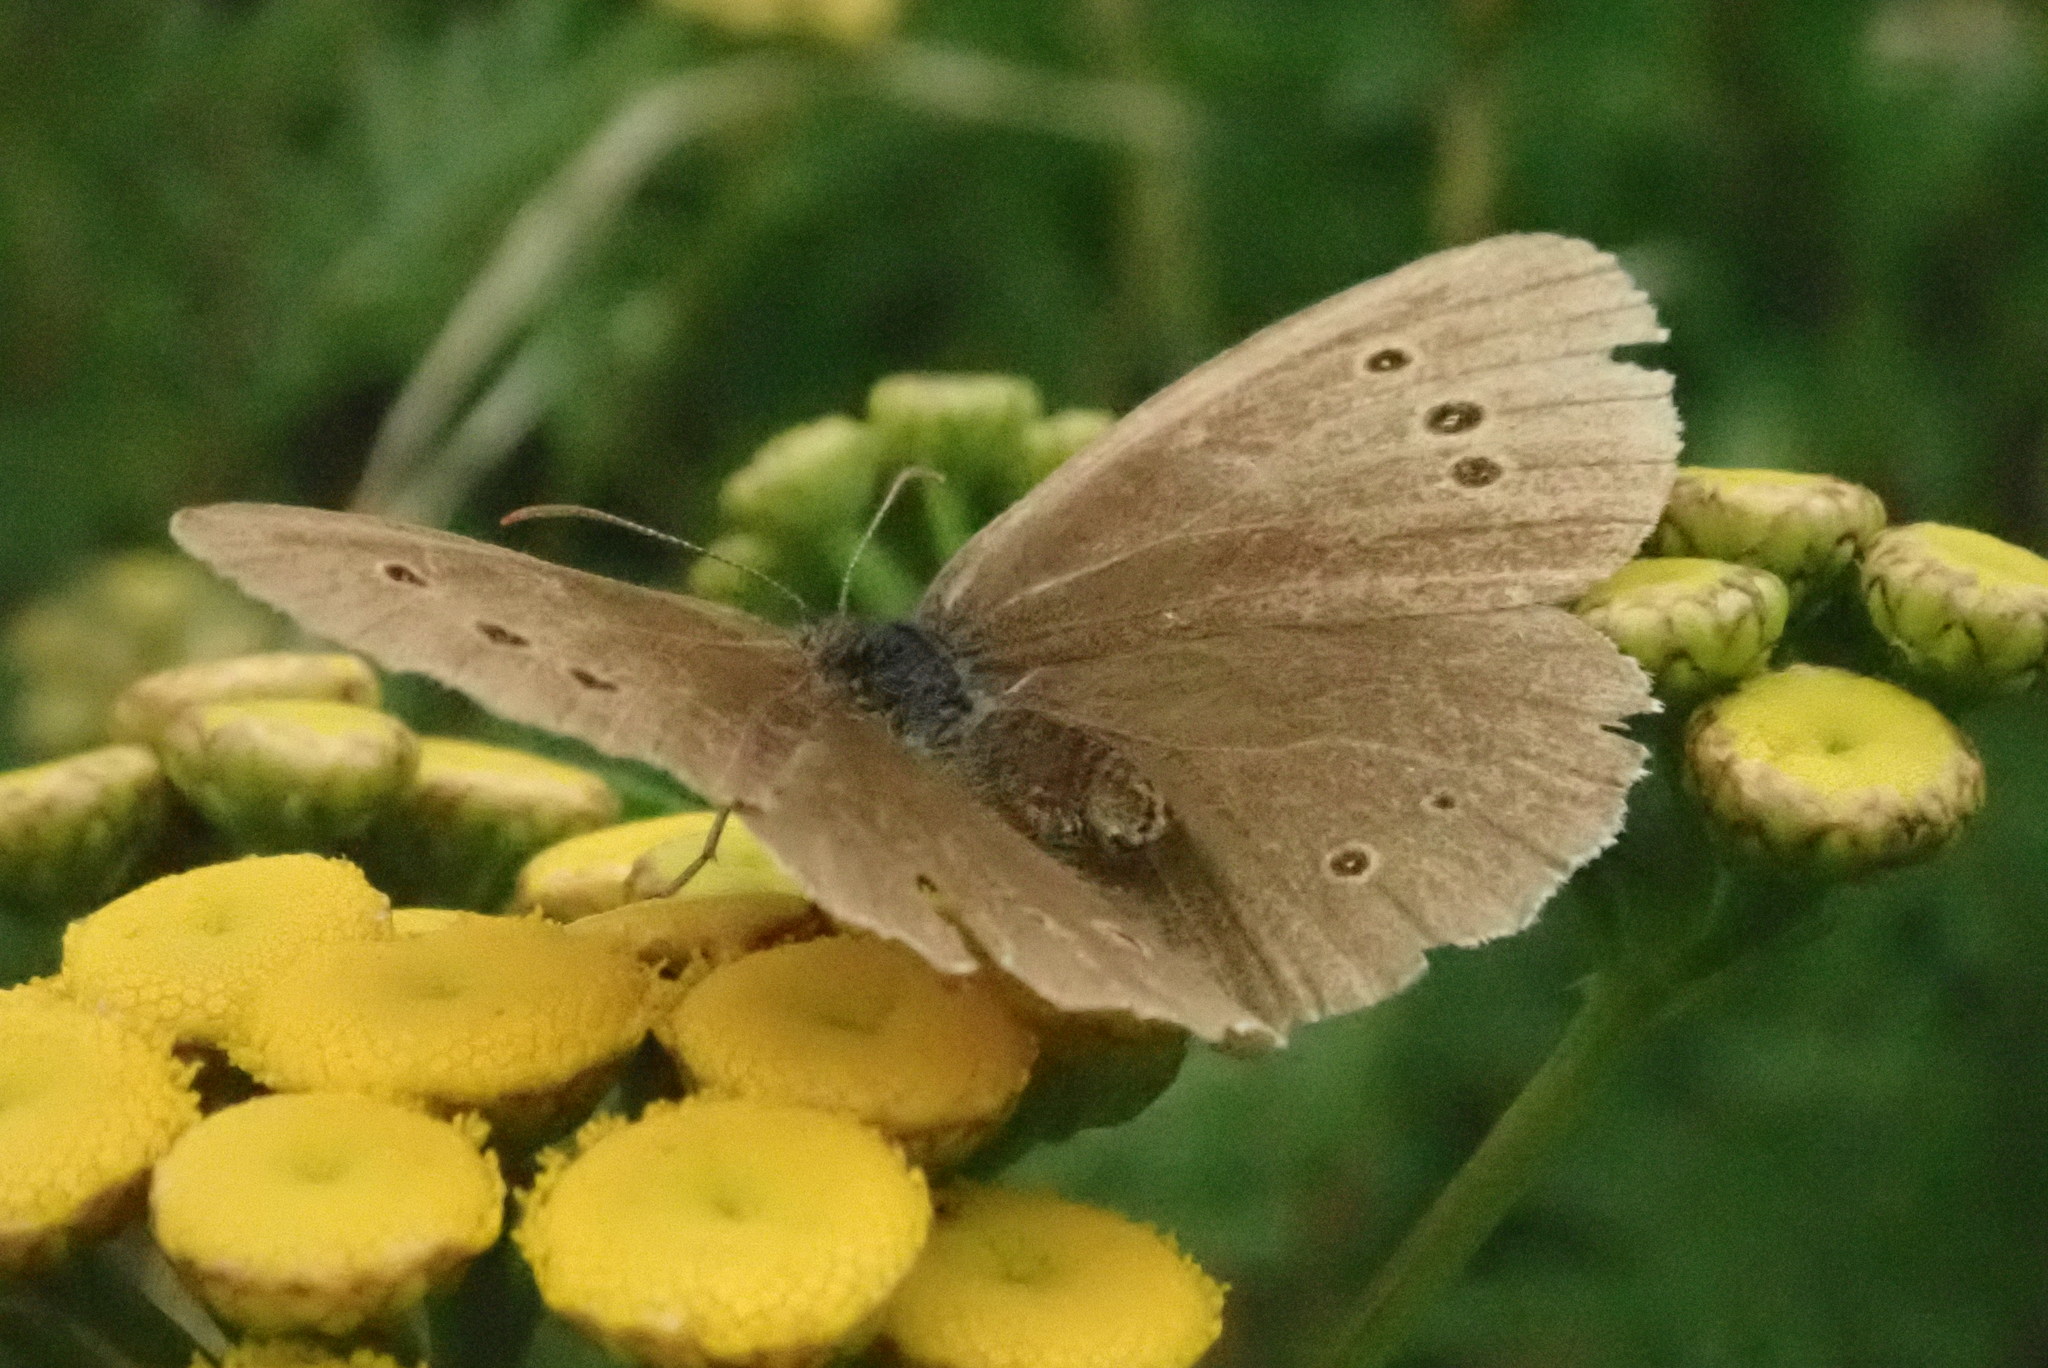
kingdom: Animalia
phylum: Arthropoda
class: Insecta
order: Lepidoptera
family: Nymphalidae
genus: Aphantopus
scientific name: Aphantopus hyperantus
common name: Ringlet
